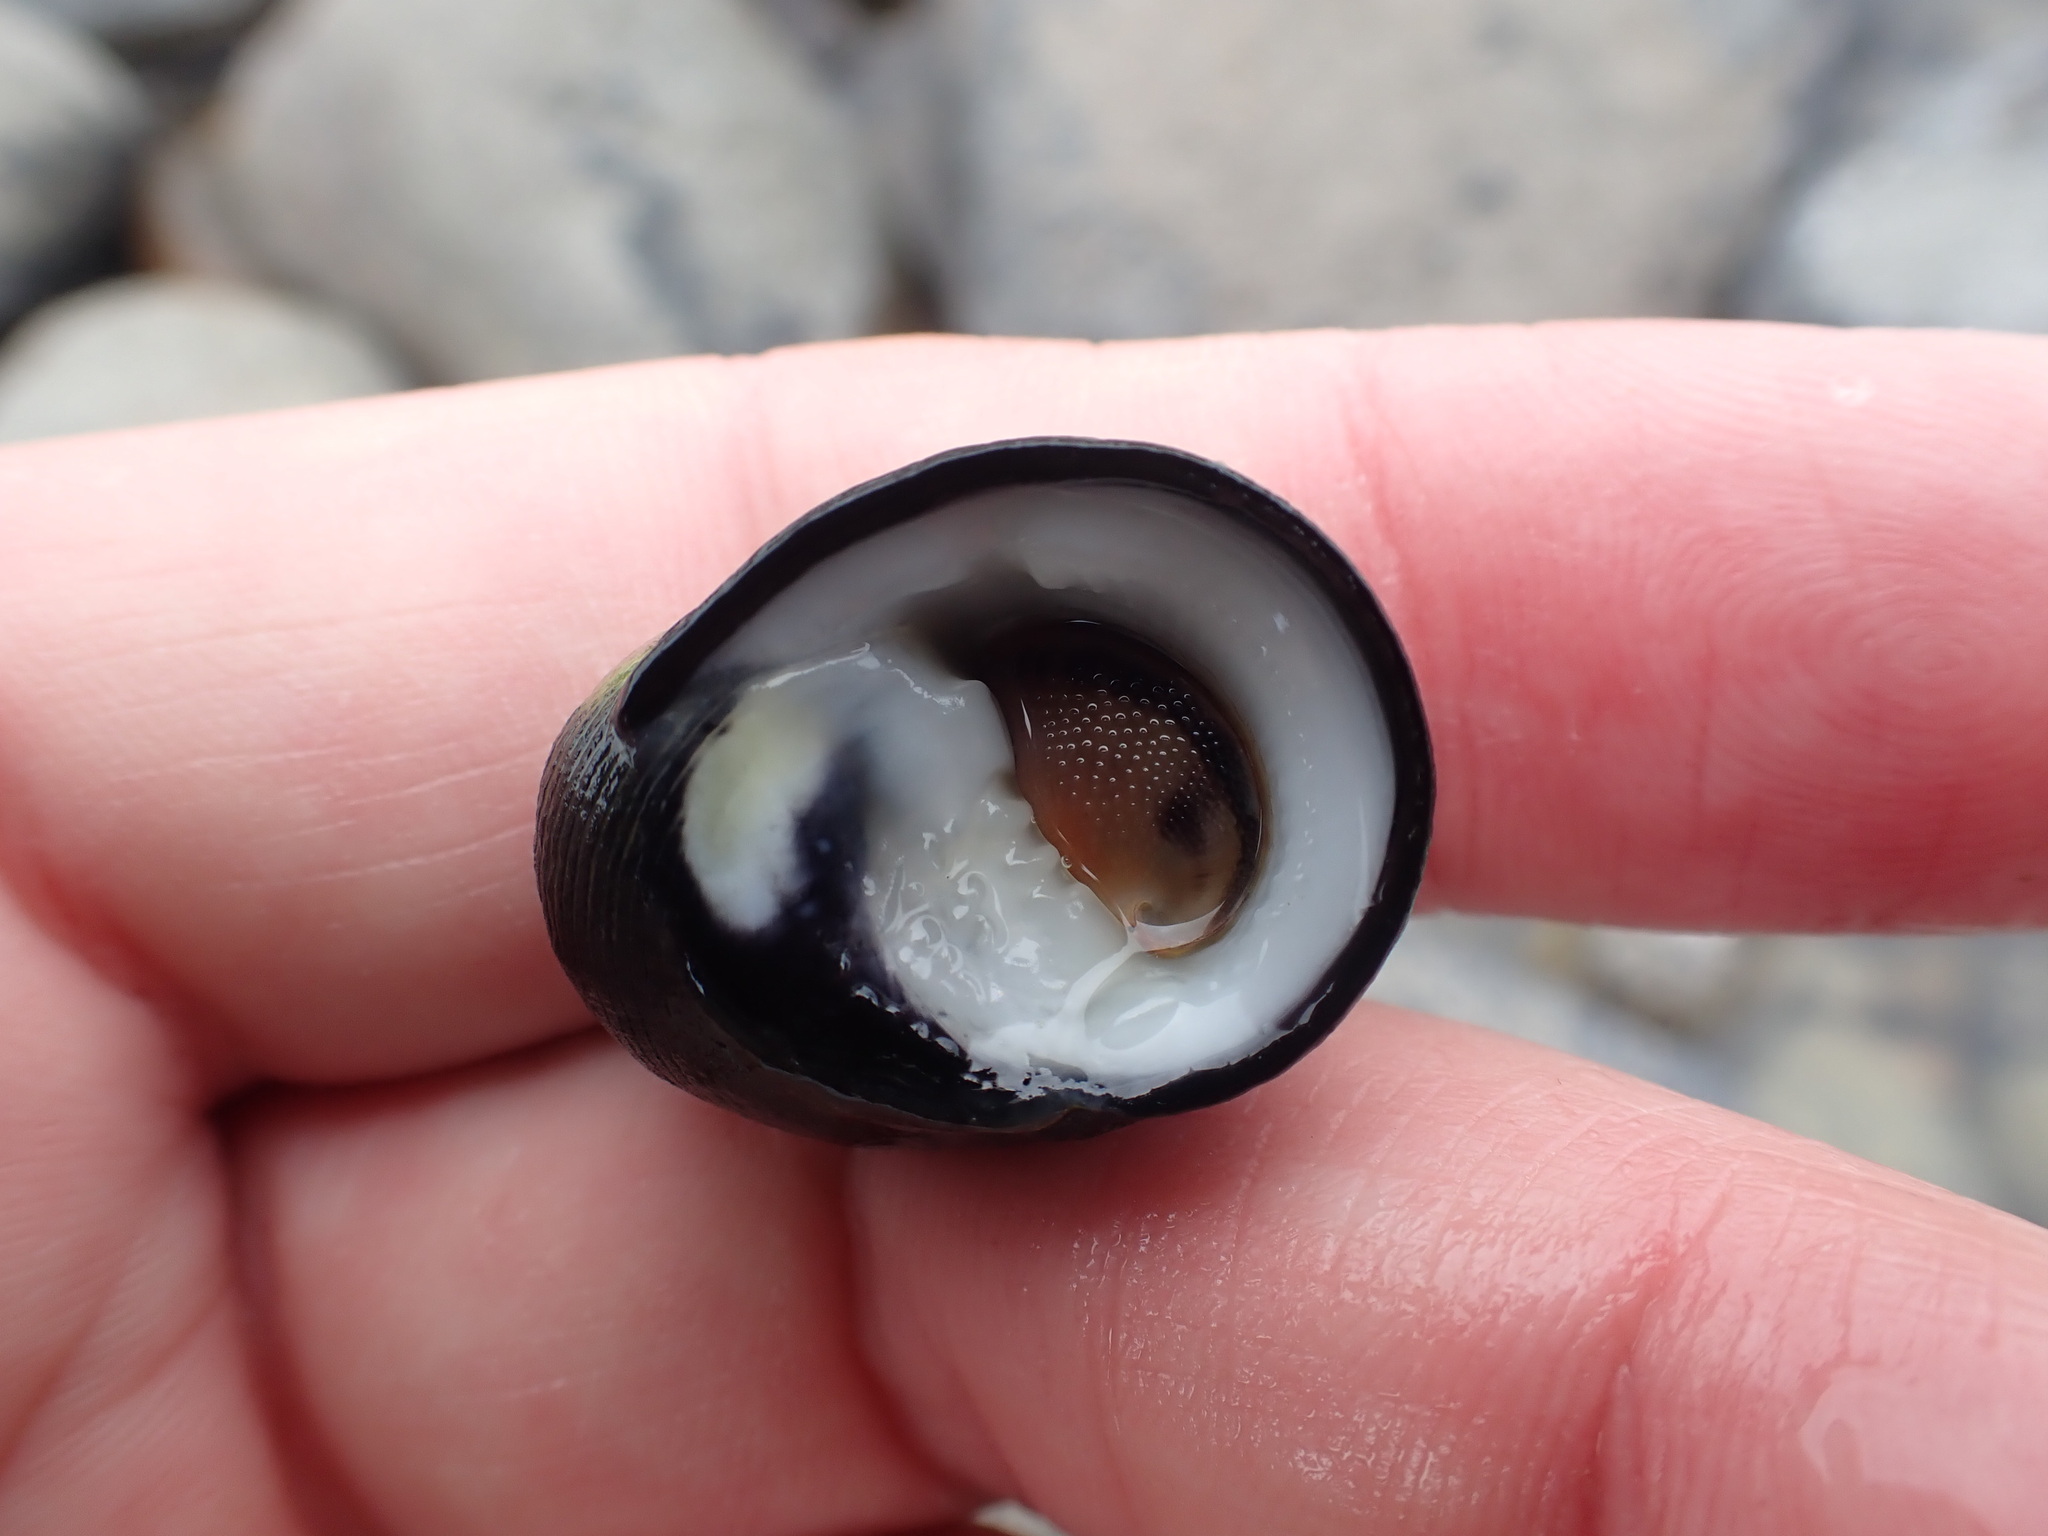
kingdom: Animalia
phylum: Mollusca
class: Gastropoda
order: Cycloneritida
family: Neritidae
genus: Nerita
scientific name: Nerita melanotragus
